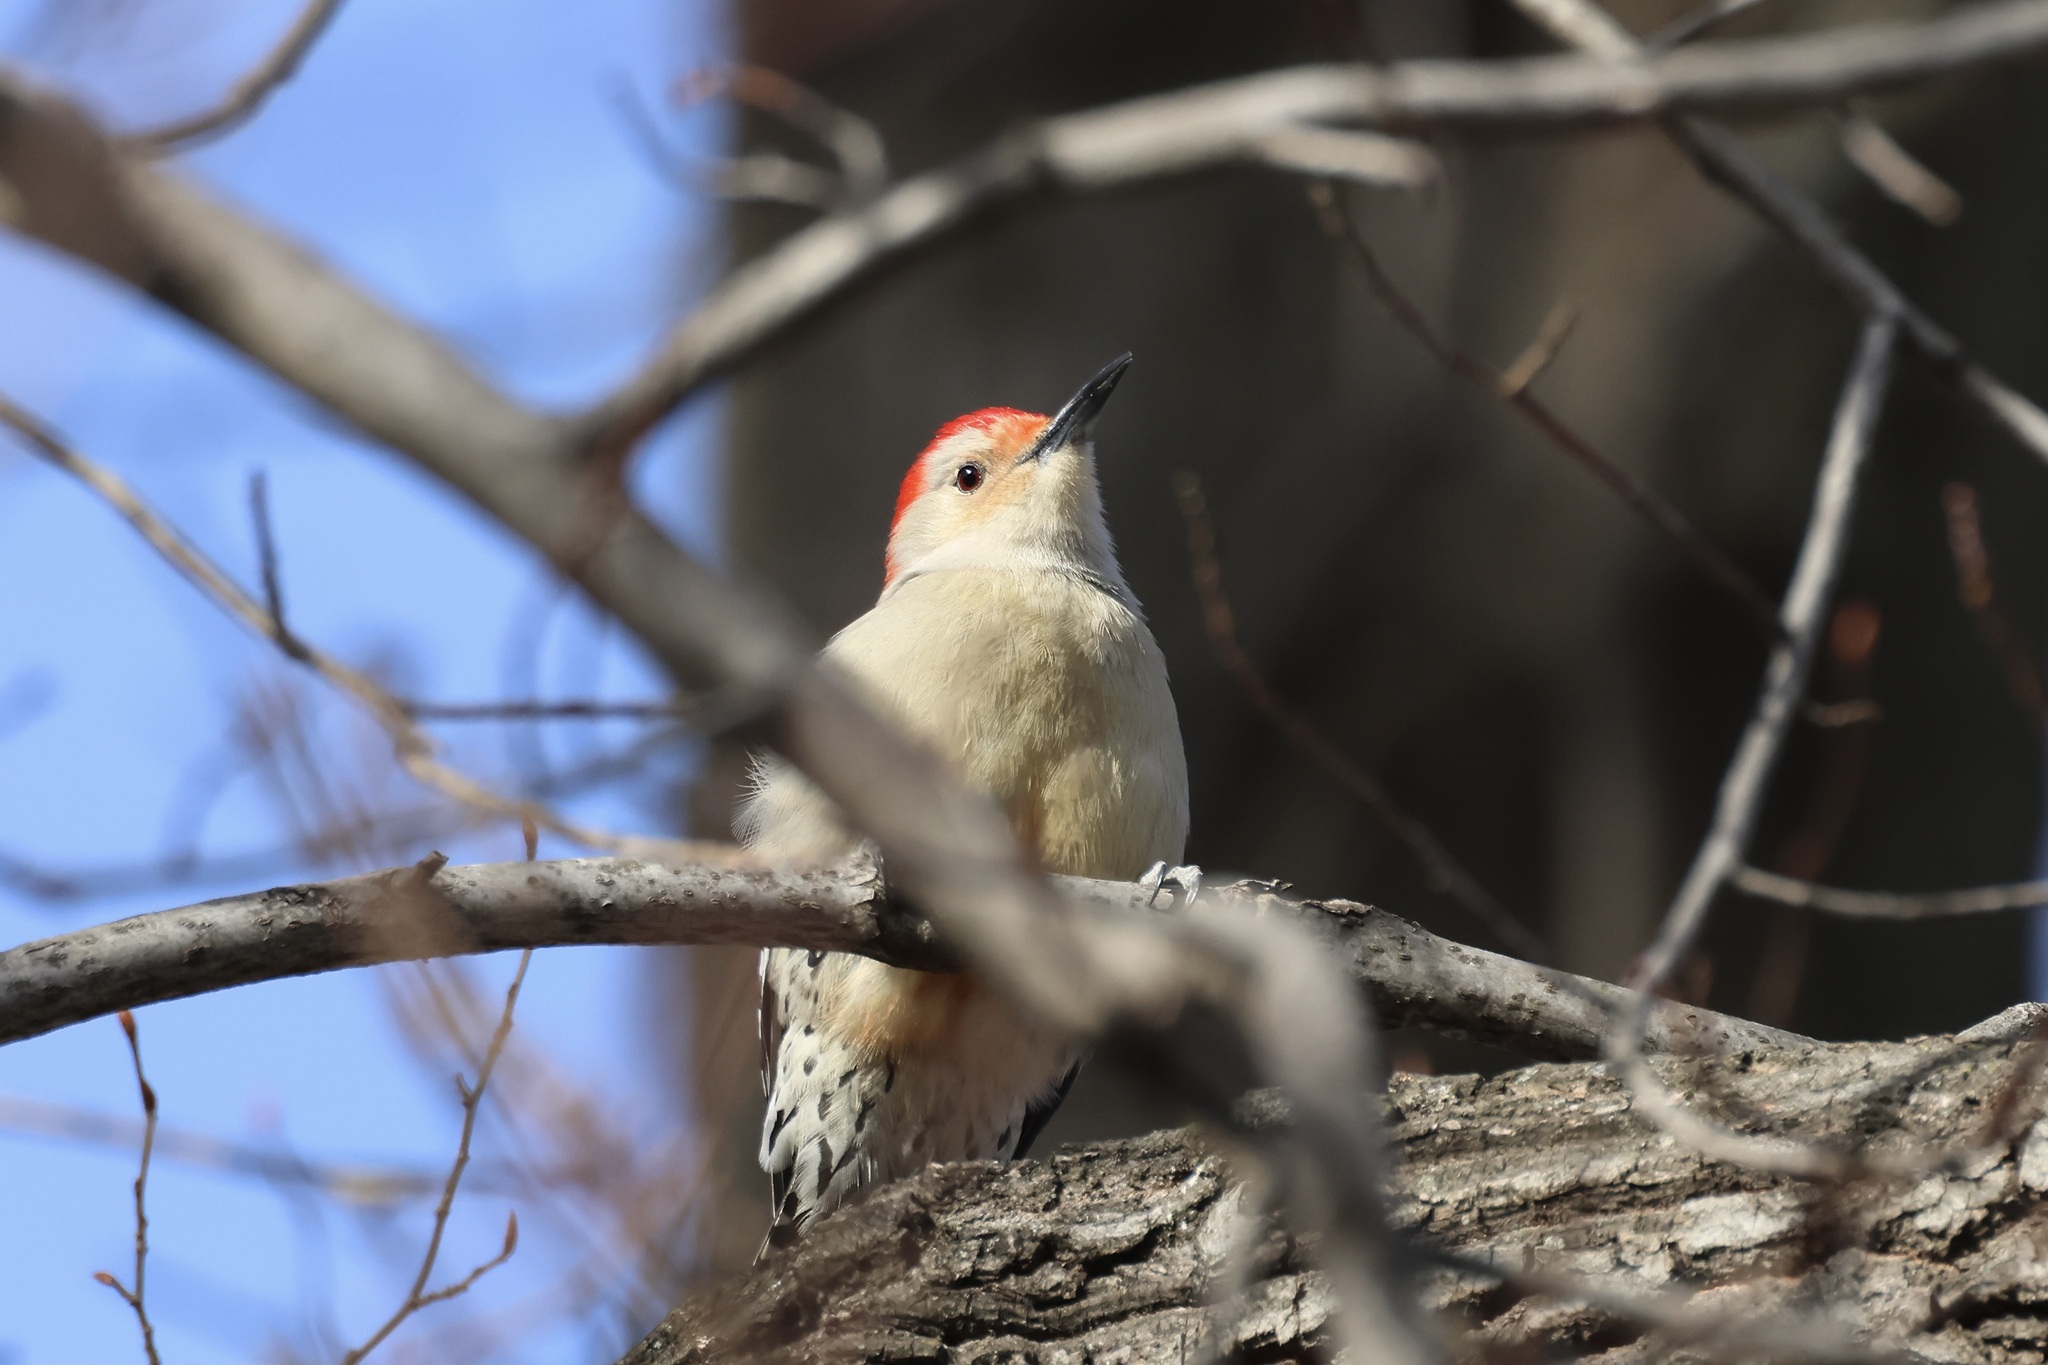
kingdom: Animalia
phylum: Chordata
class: Aves
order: Piciformes
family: Picidae
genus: Melanerpes
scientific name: Melanerpes carolinus
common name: Red-bellied woodpecker
